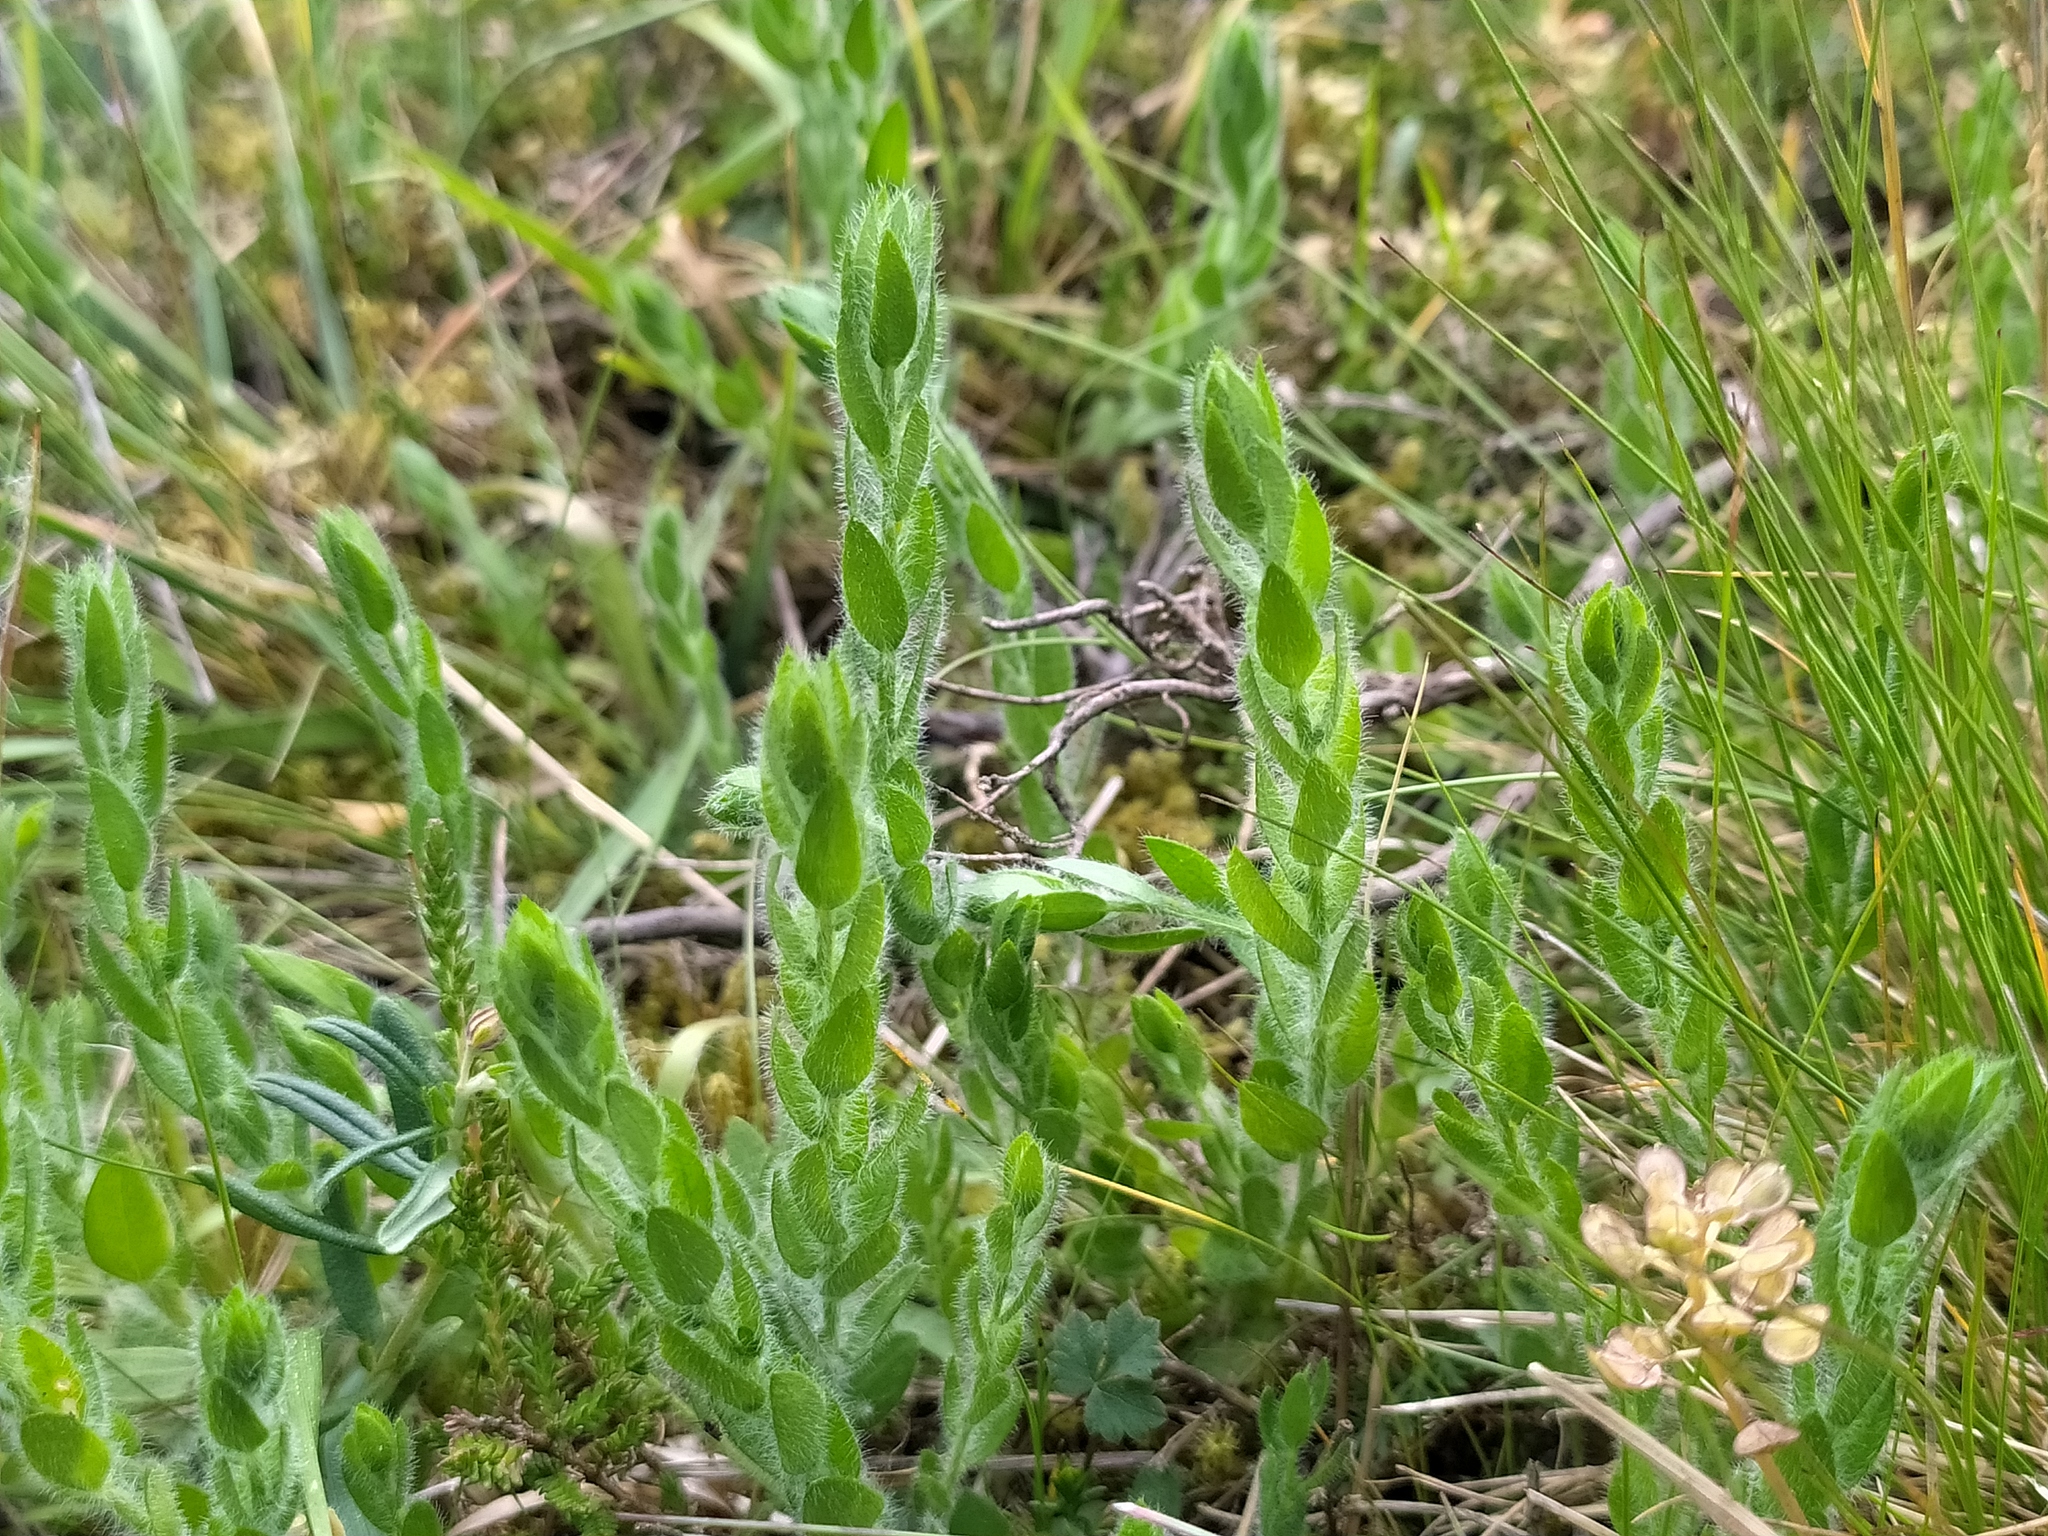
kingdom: Plantae
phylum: Tracheophyta
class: Magnoliopsida
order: Fabales
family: Fabaceae
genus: Genista
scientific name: Genista sagittalis
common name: Winged greenweed
